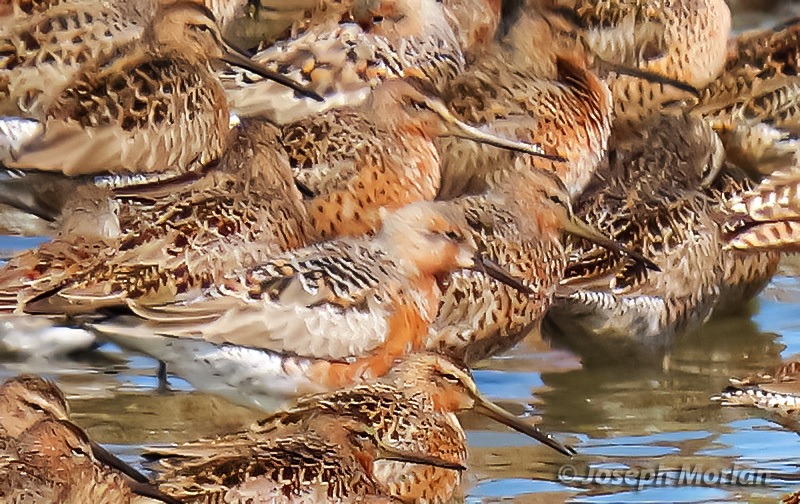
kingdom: Animalia
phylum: Chordata
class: Aves
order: Charadriiformes
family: Scolopacidae
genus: Calidris
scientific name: Calidris canutus
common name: Red knot
